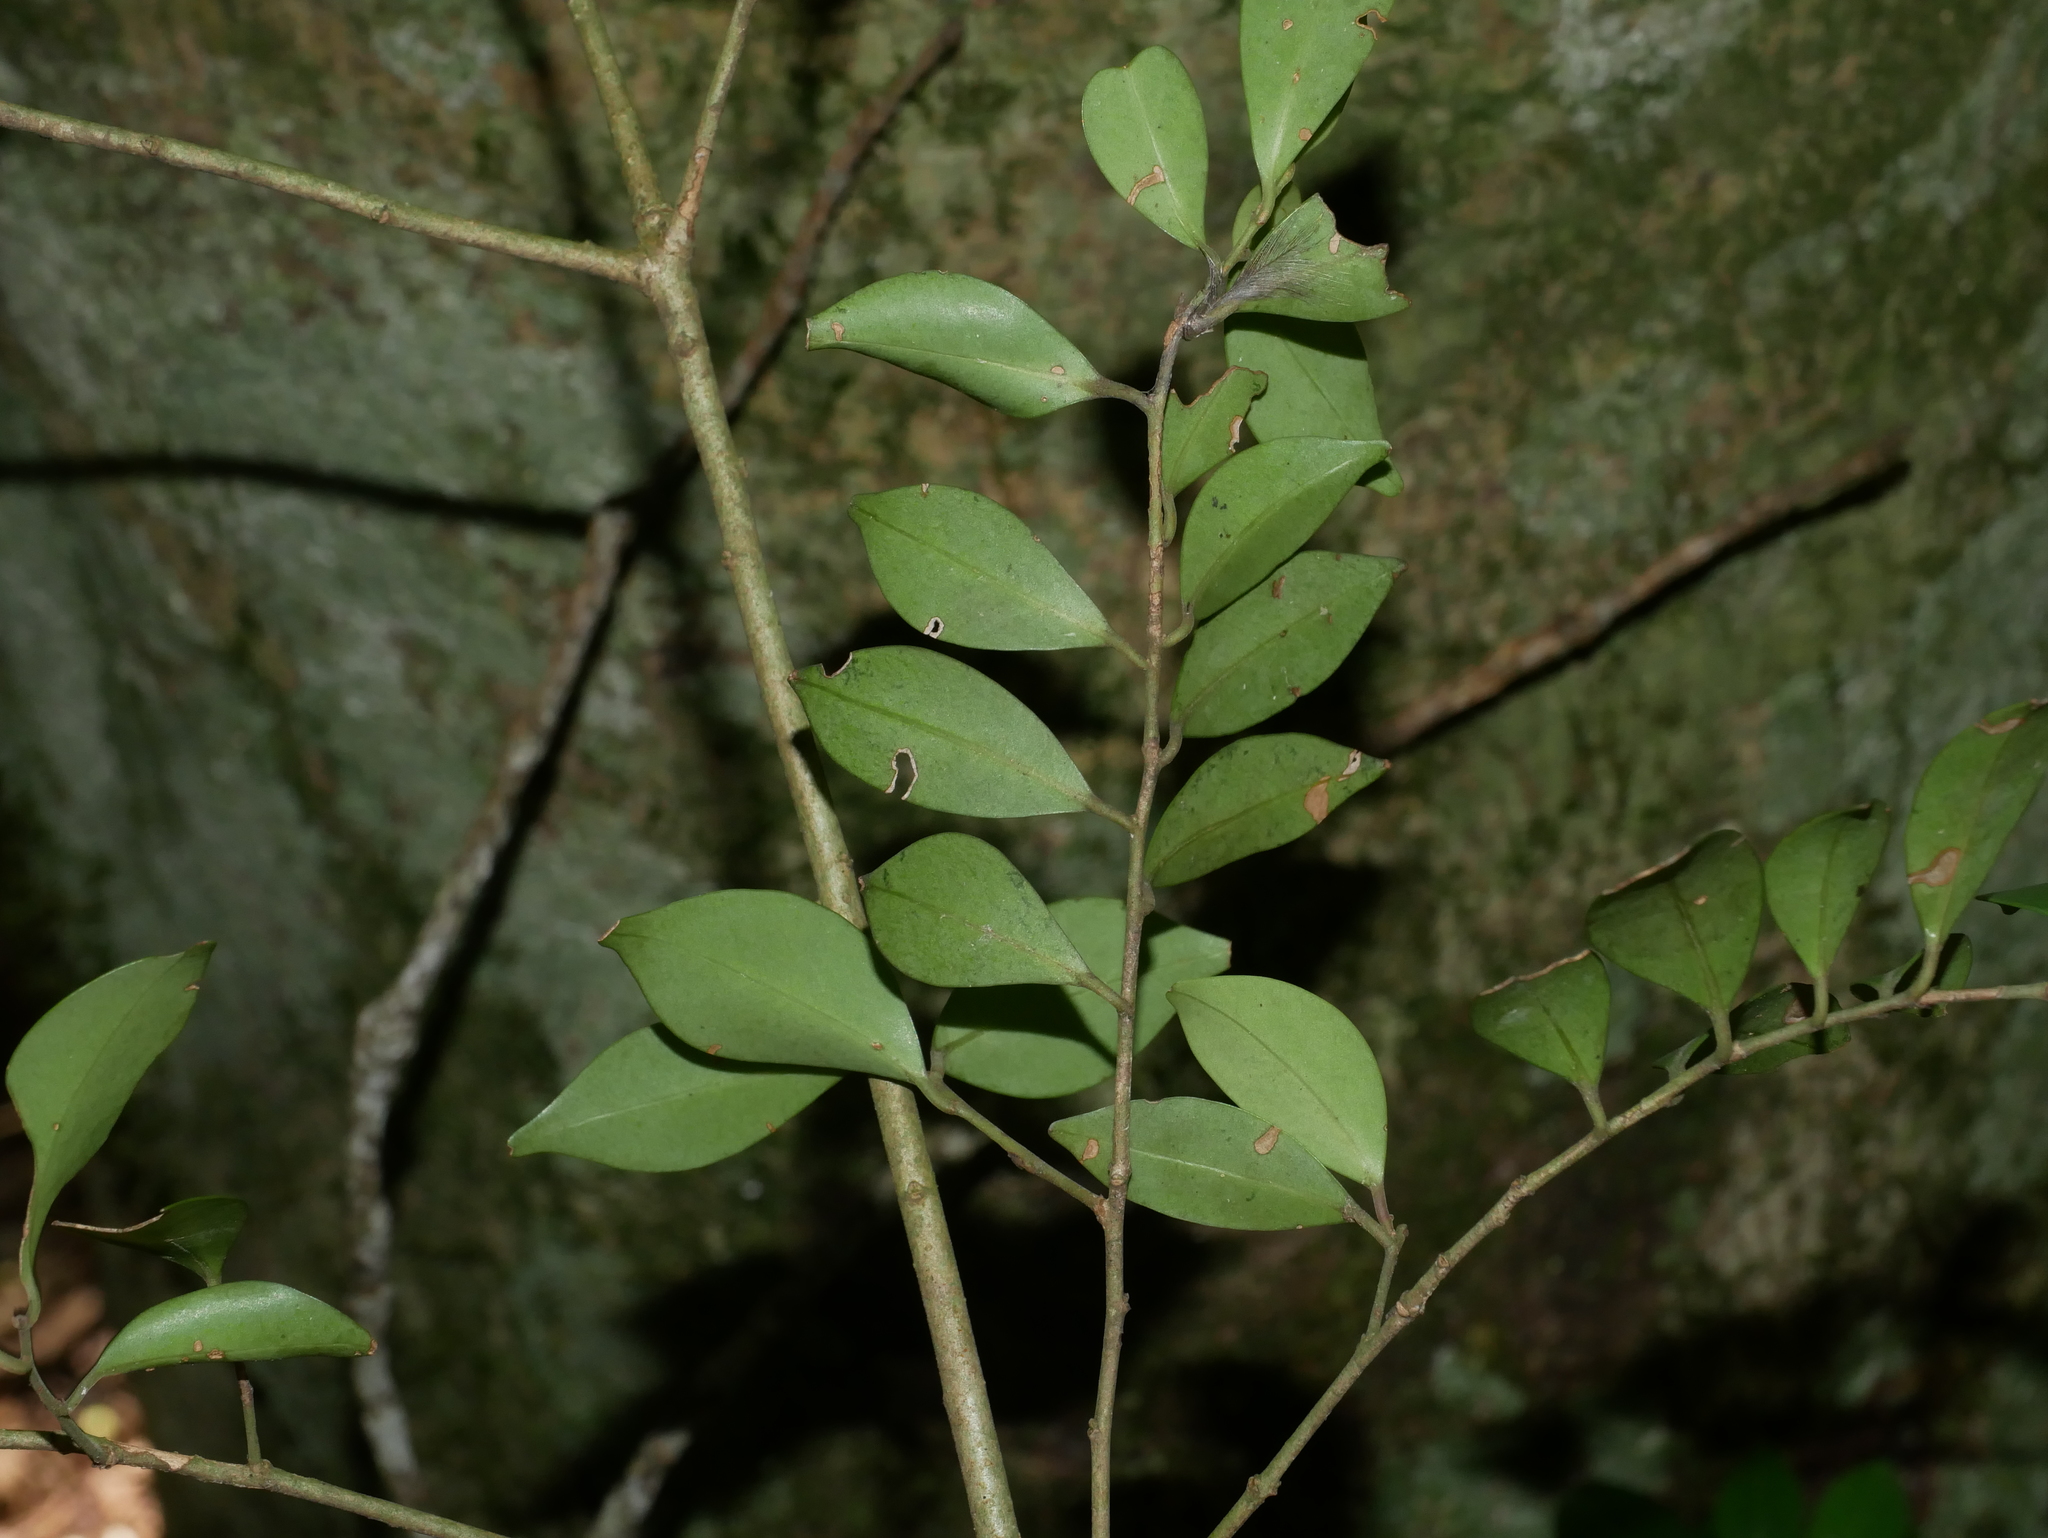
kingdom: Plantae
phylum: Tracheophyta
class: Magnoliopsida
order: Aquifoliales
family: Aquifoliaceae
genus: Ilex
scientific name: Ilex goshiensis
